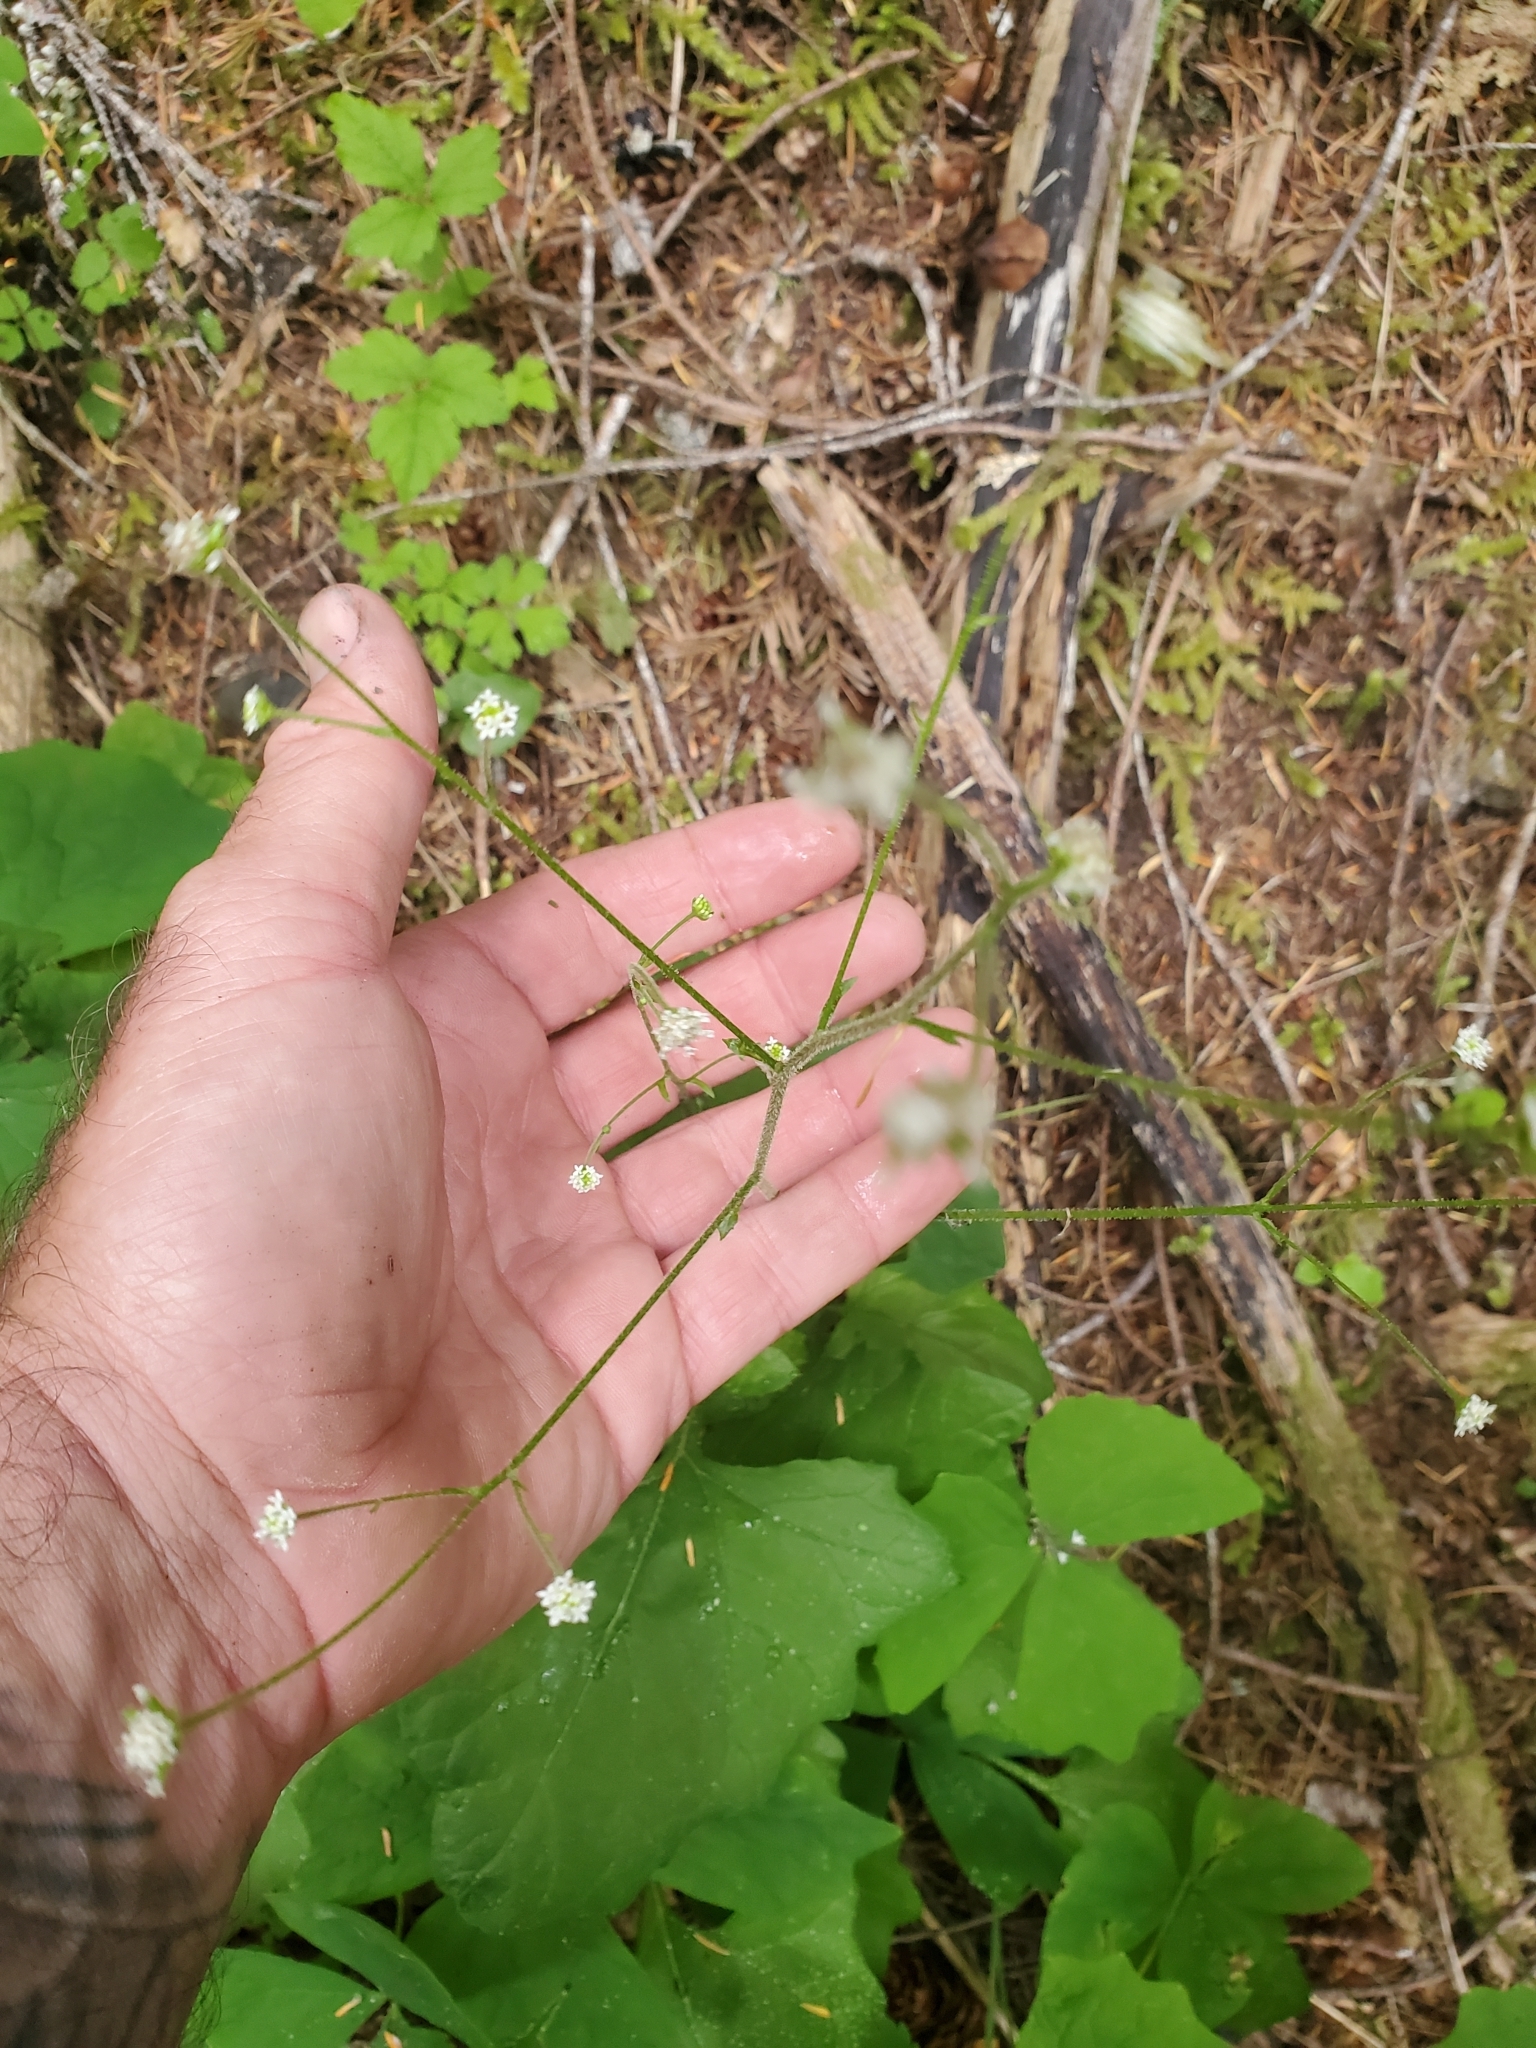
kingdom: Plantae
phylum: Tracheophyta
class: Magnoliopsida
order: Asterales
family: Asteraceae
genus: Adenocaulon
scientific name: Adenocaulon bicolor
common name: Trailplant
